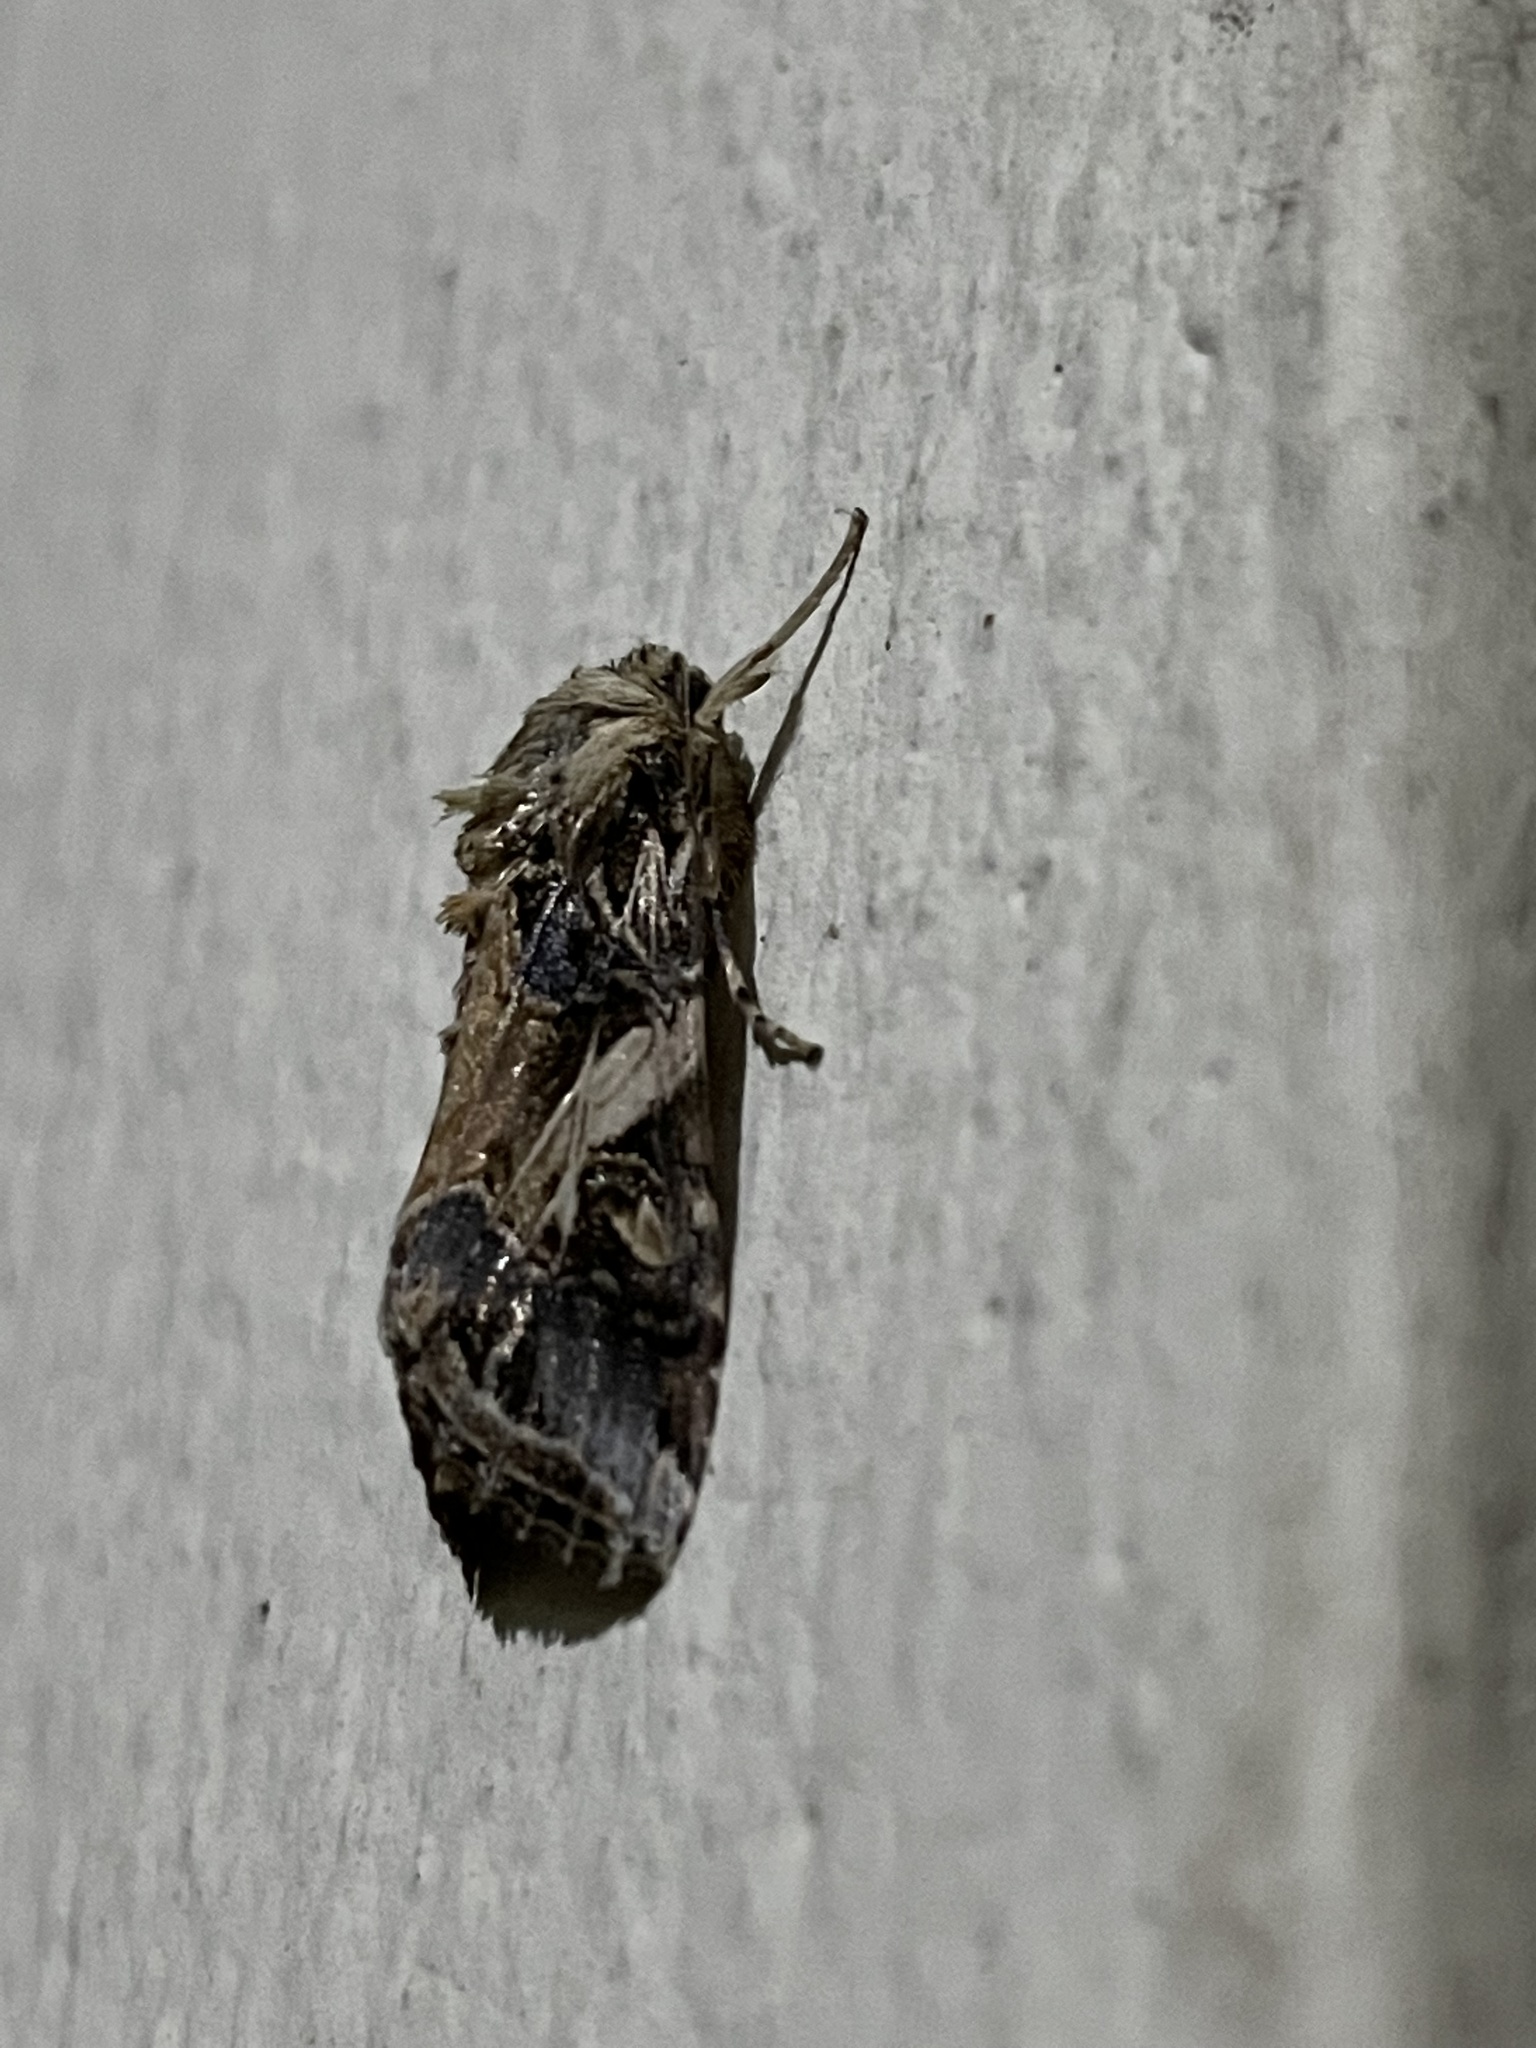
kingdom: Animalia
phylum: Arthropoda
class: Insecta
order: Lepidoptera
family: Noctuidae
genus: Spodoptera
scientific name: Spodoptera litura
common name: Asian cotton leafworm
